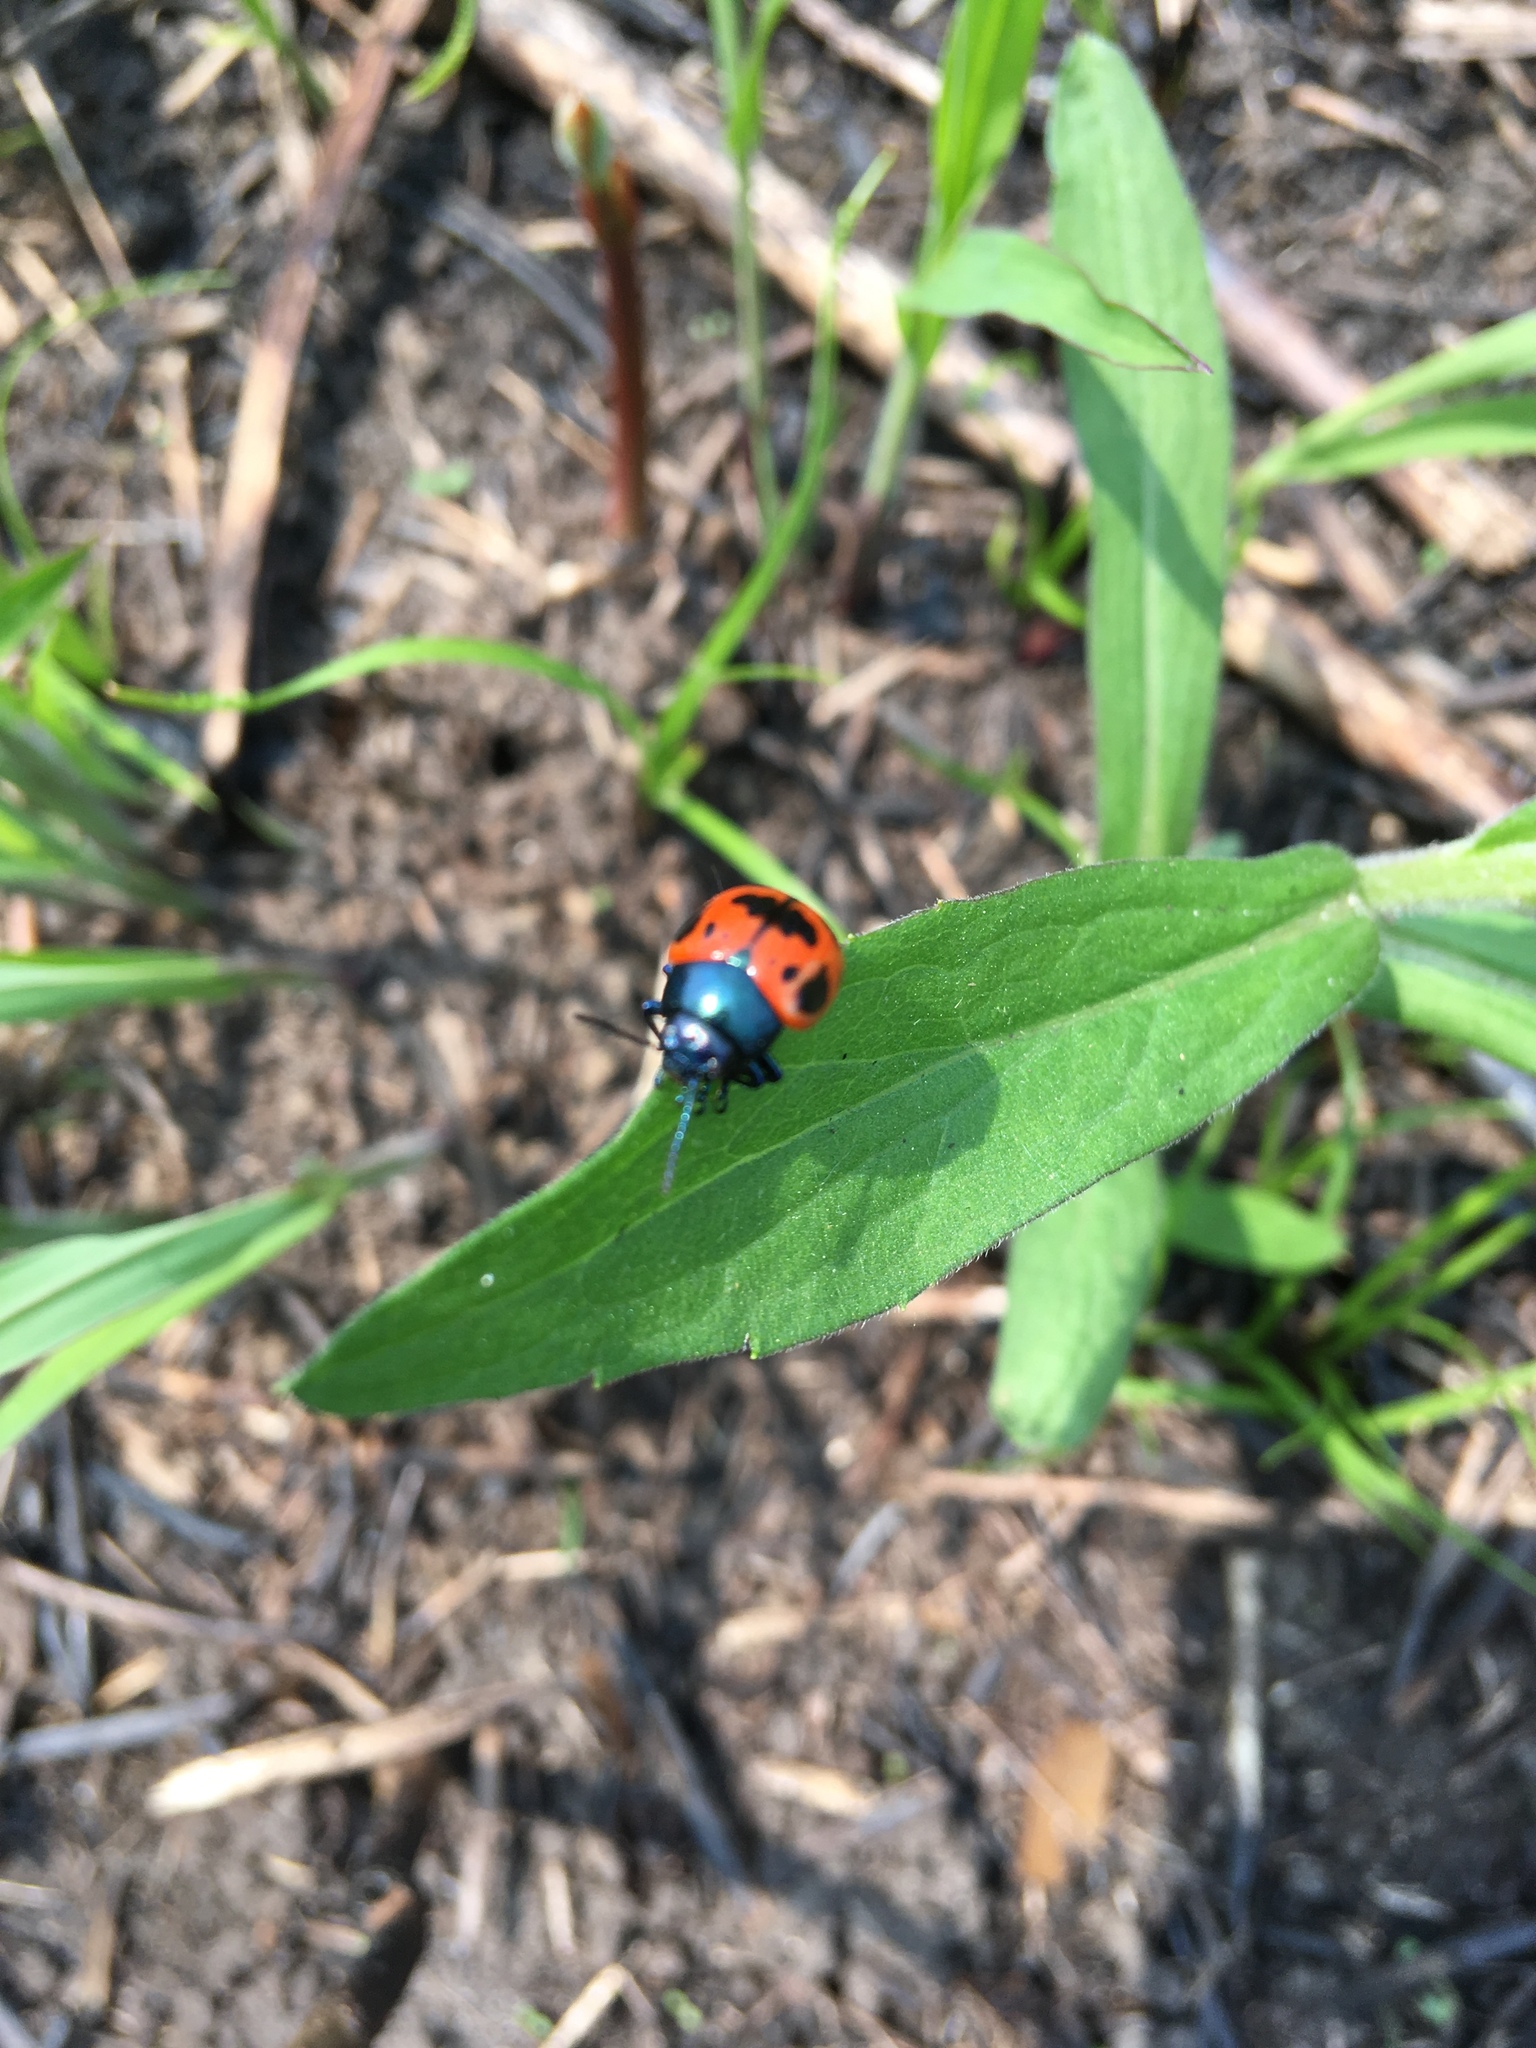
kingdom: Animalia
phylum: Arthropoda
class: Insecta
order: Coleoptera
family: Chrysomelidae
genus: Labidomera
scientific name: Labidomera clivicollis
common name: Swamp milkweed leaf beetle
